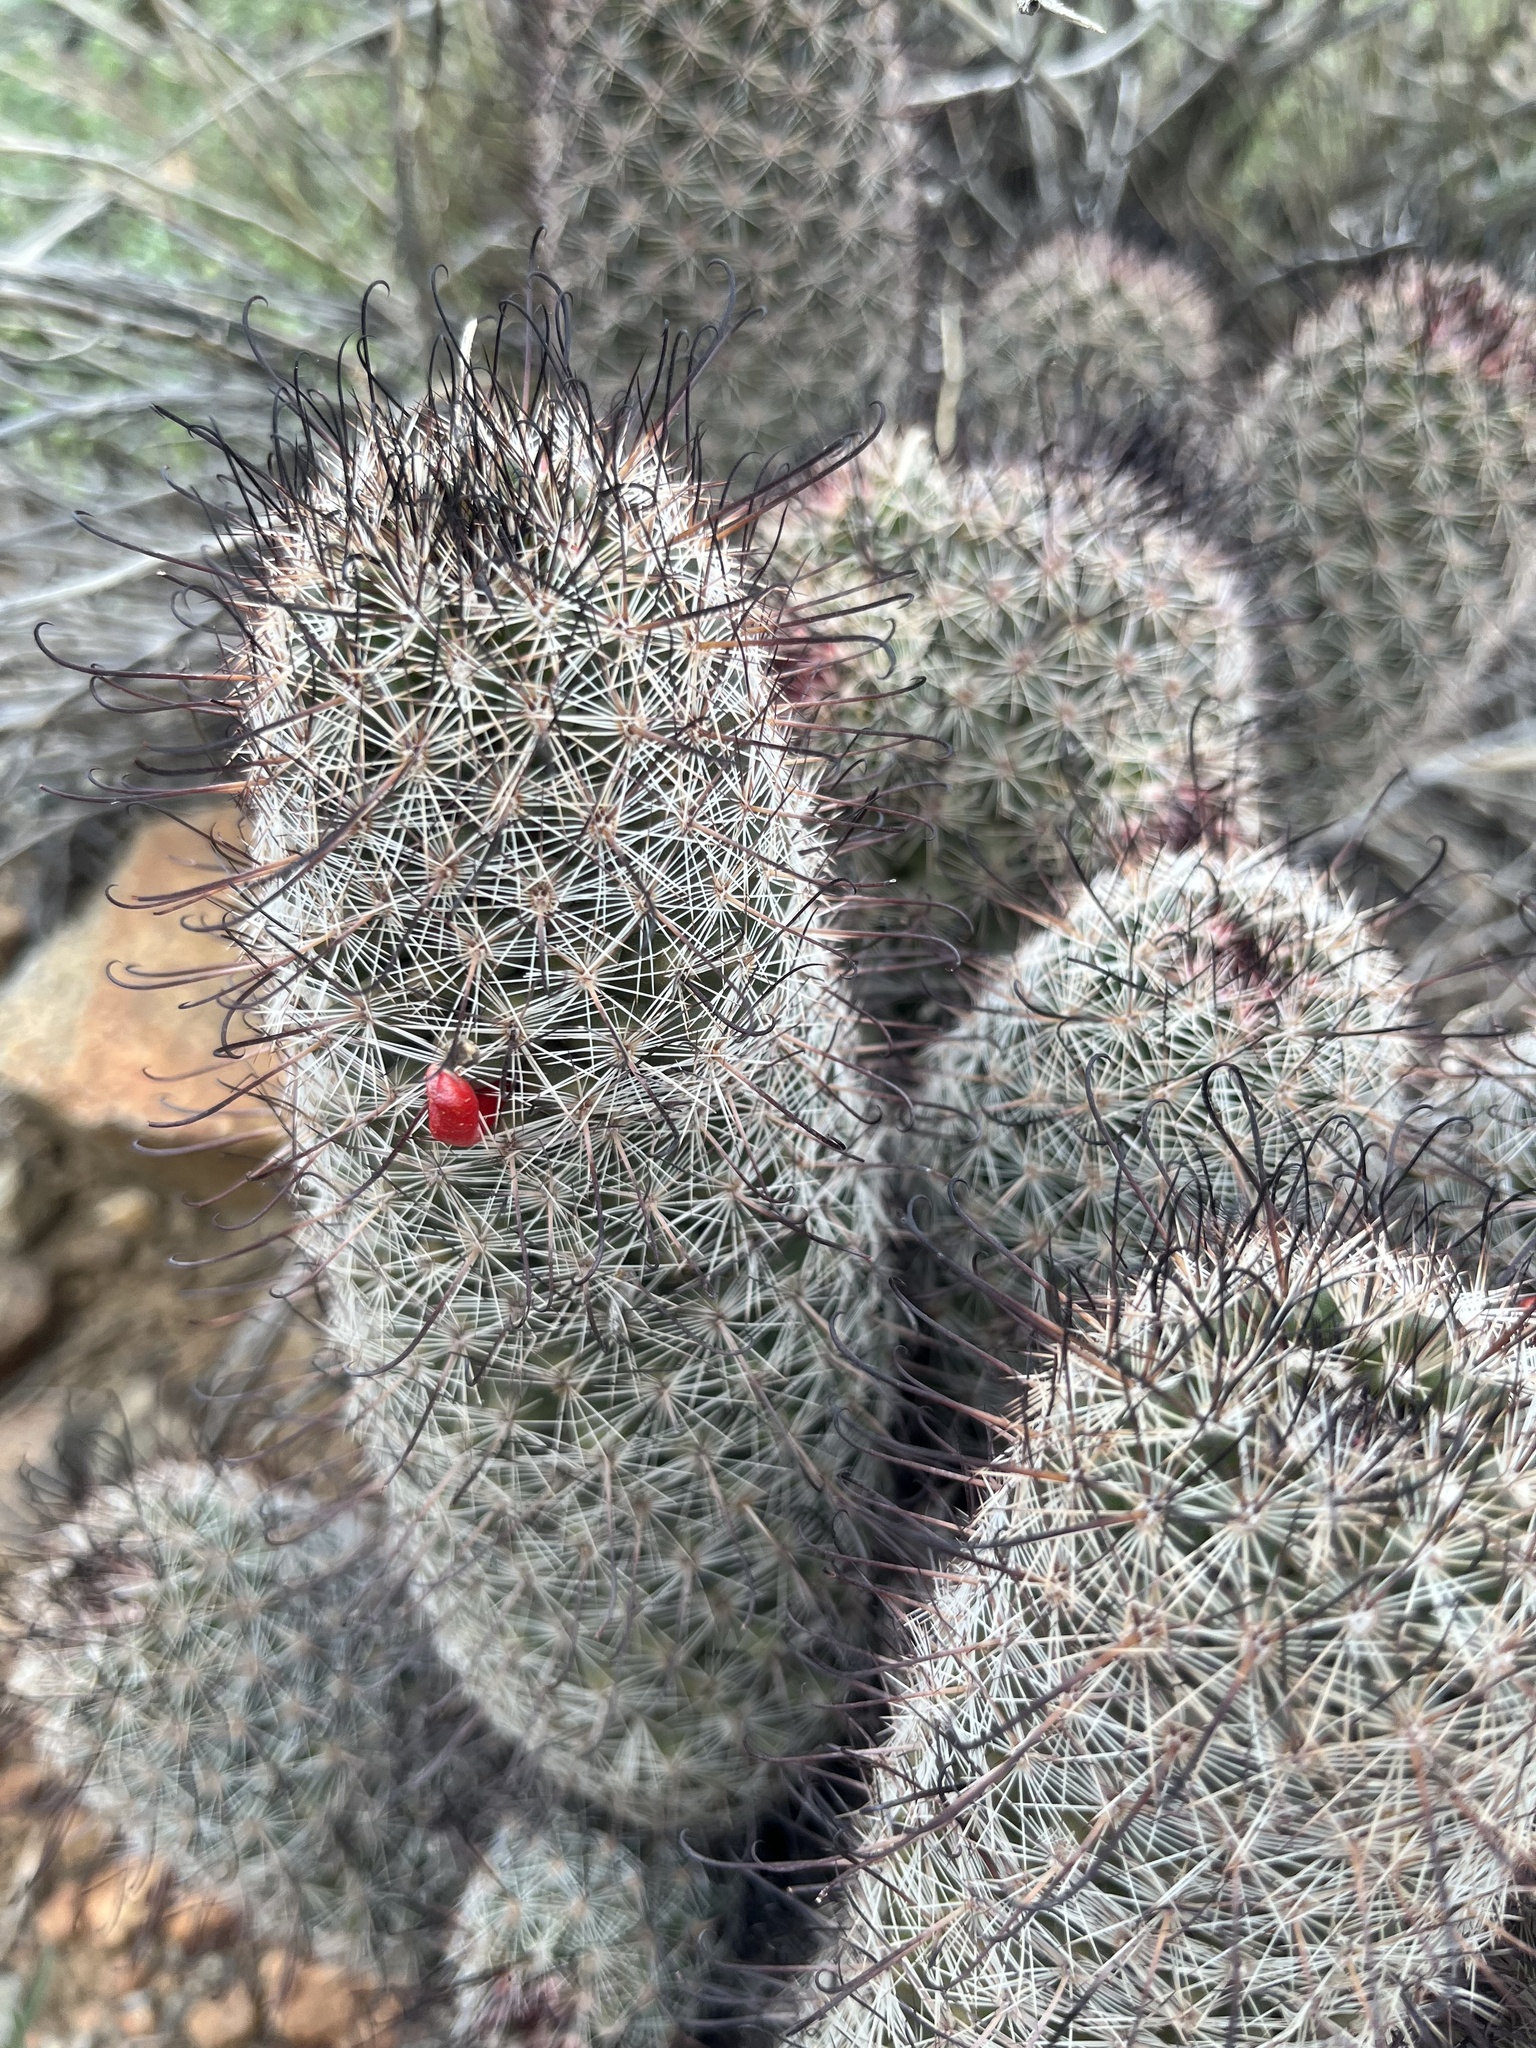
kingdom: Plantae
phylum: Tracheophyta
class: Magnoliopsida
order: Caryophyllales
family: Cactaceae
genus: Cochemiea
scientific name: Cochemiea grahamii
